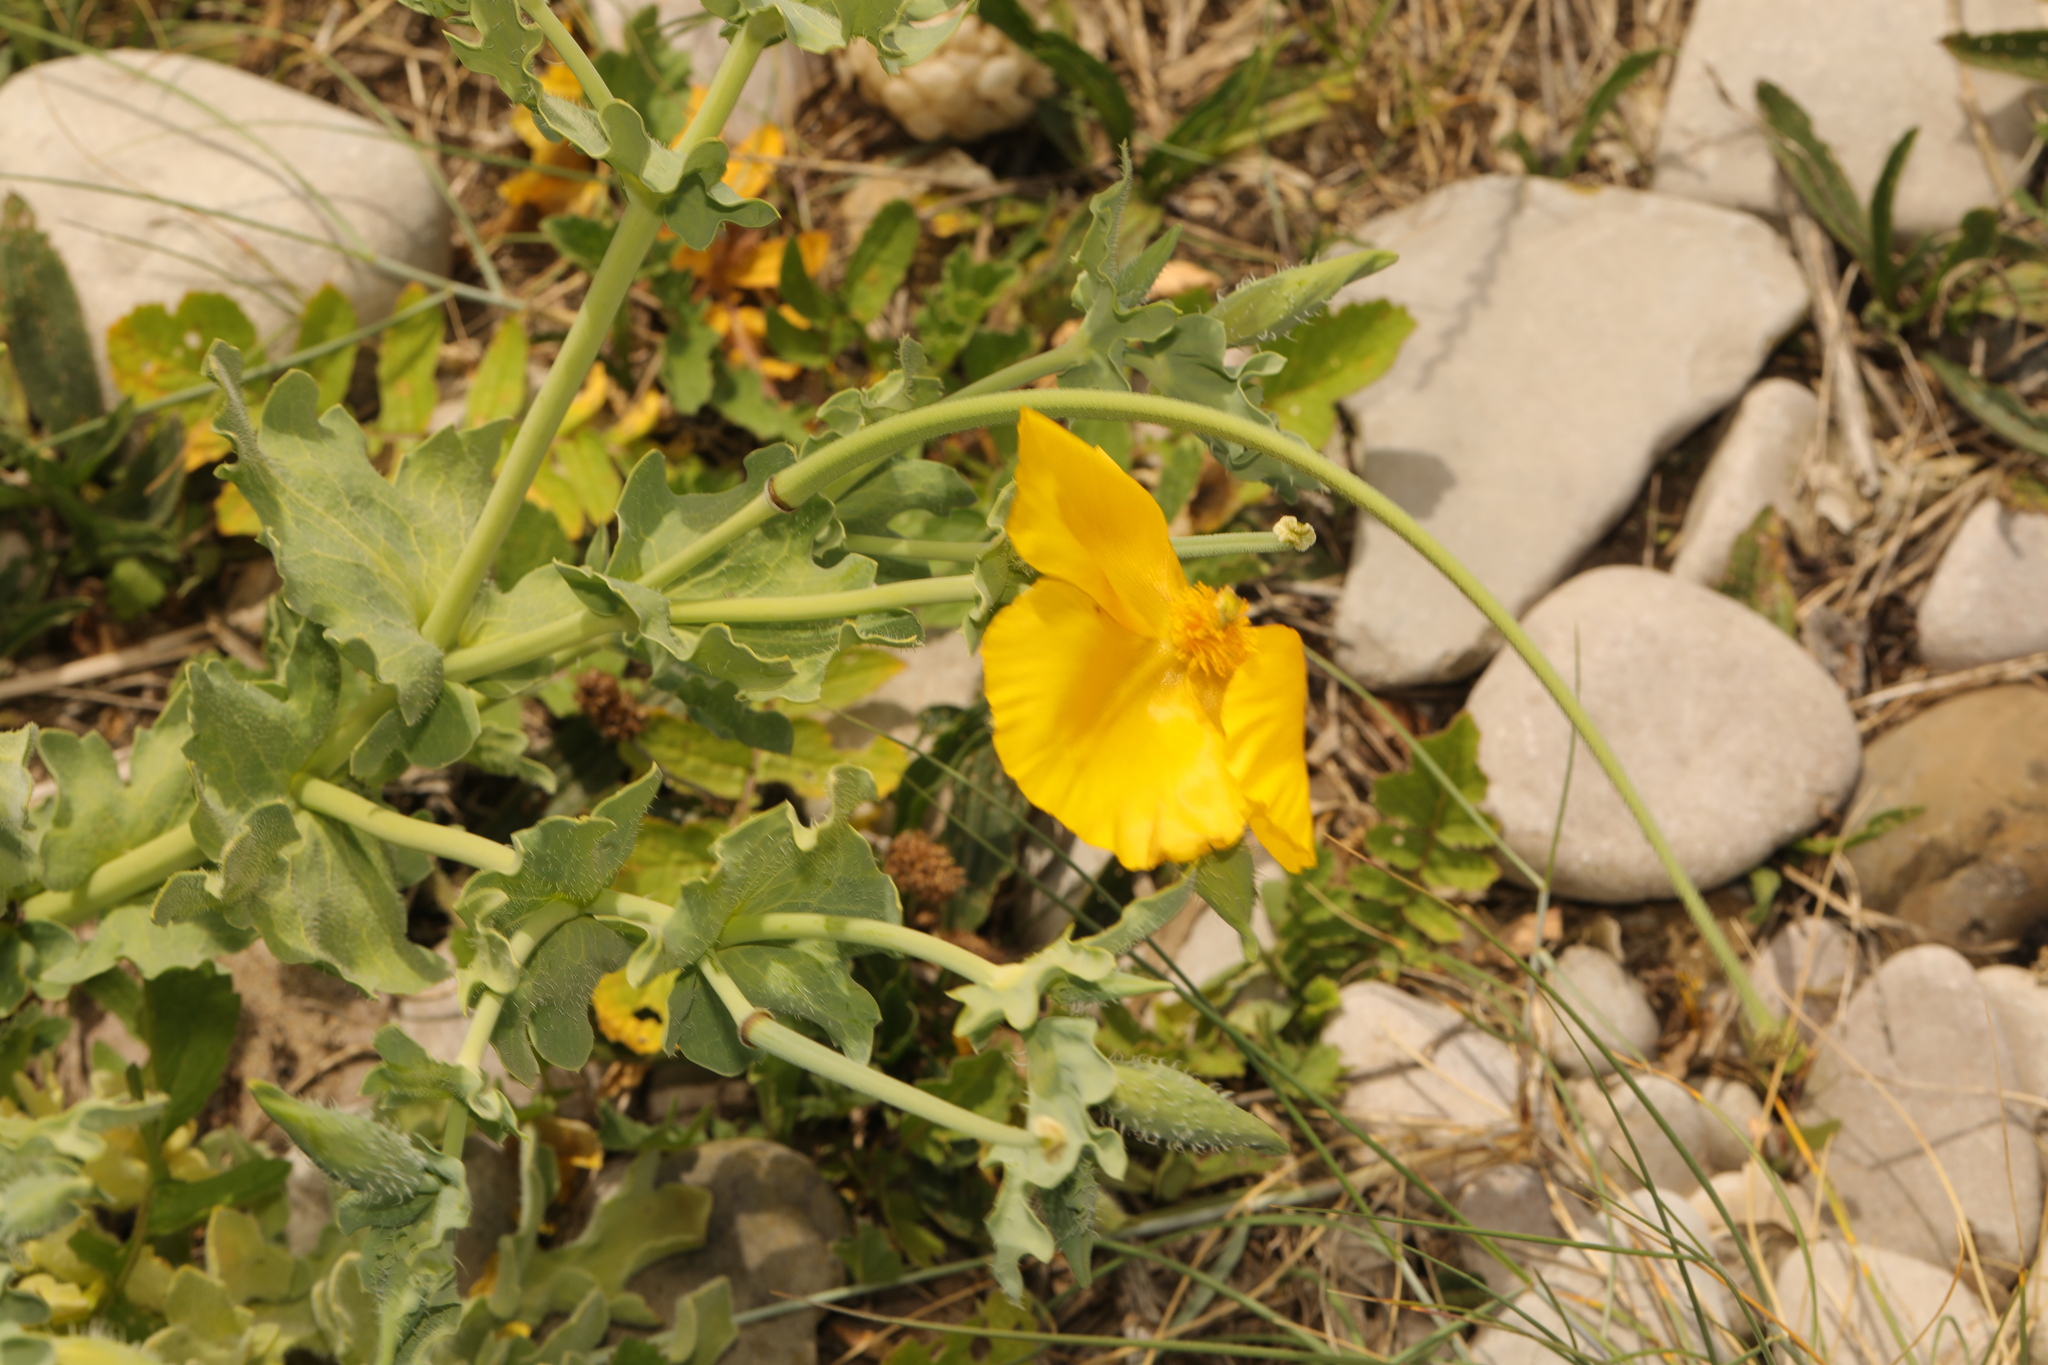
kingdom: Plantae
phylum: Tracheophyta
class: Magnoliopsida
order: Ranunculales
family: Papaveraceae
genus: Glaucium
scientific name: Glaucium flavum
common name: Yellow horned-poppy
